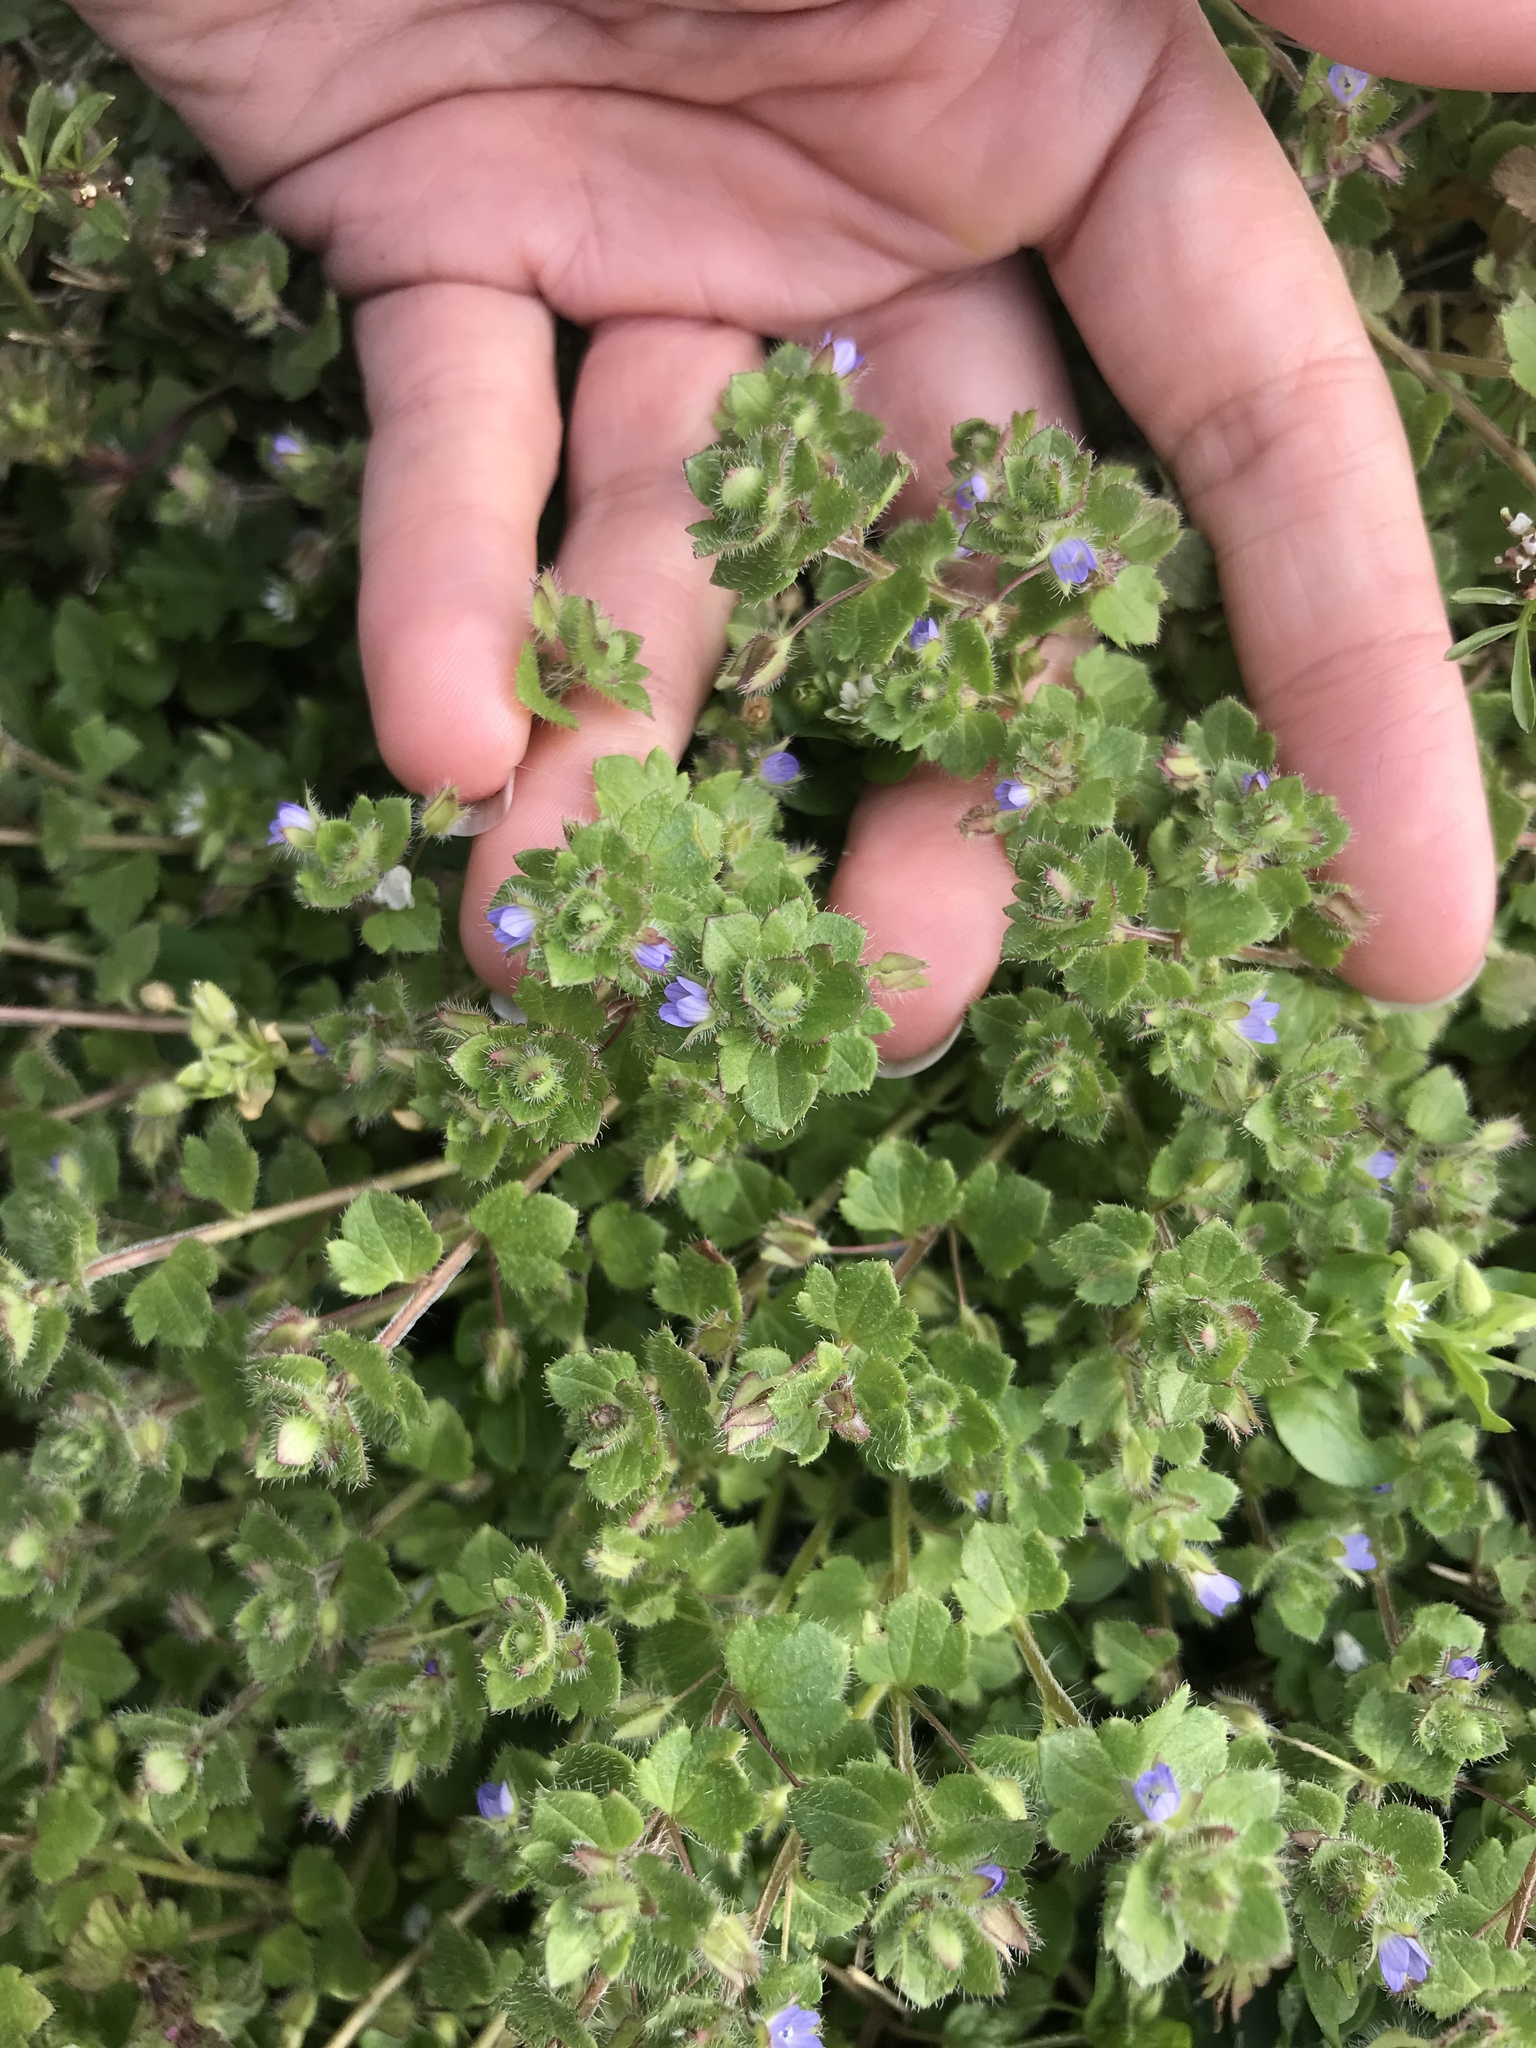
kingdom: Plantae
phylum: Tracheophyta
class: Magnoliopsida
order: Lamiales
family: Plantaginaceae
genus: Veronica
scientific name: Veronica hederifolia
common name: Ivy-leaved speedwell
